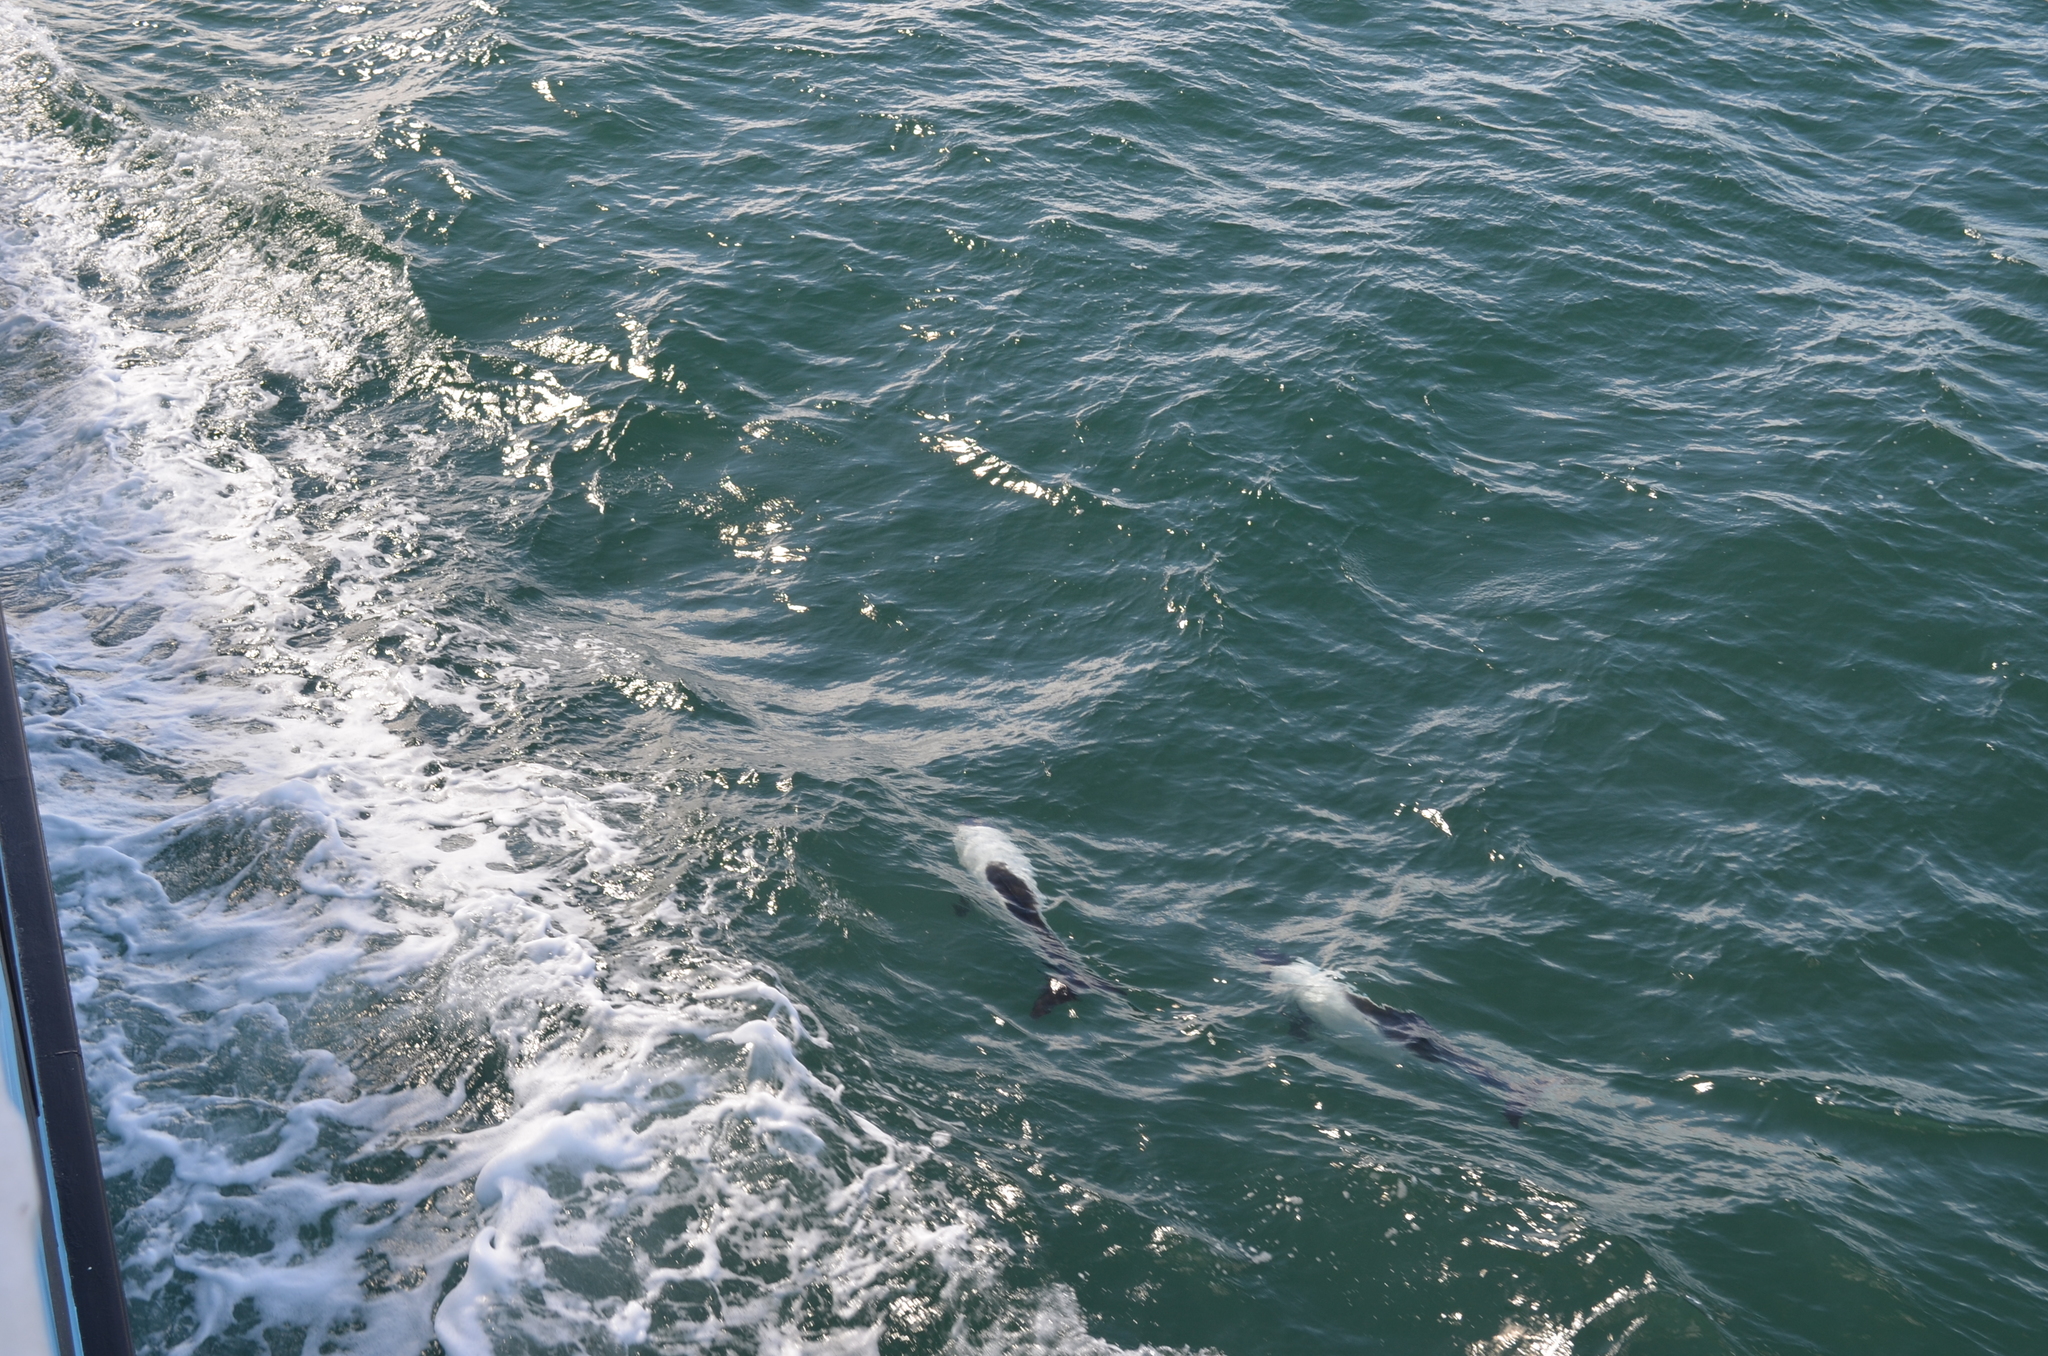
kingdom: Animalia
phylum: Chordata
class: Mammalia
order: Cetacea
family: Delphinidae
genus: Cephalorhynchus
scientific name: Cephalorhynchus commersonii
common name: Commerson's dolphin
